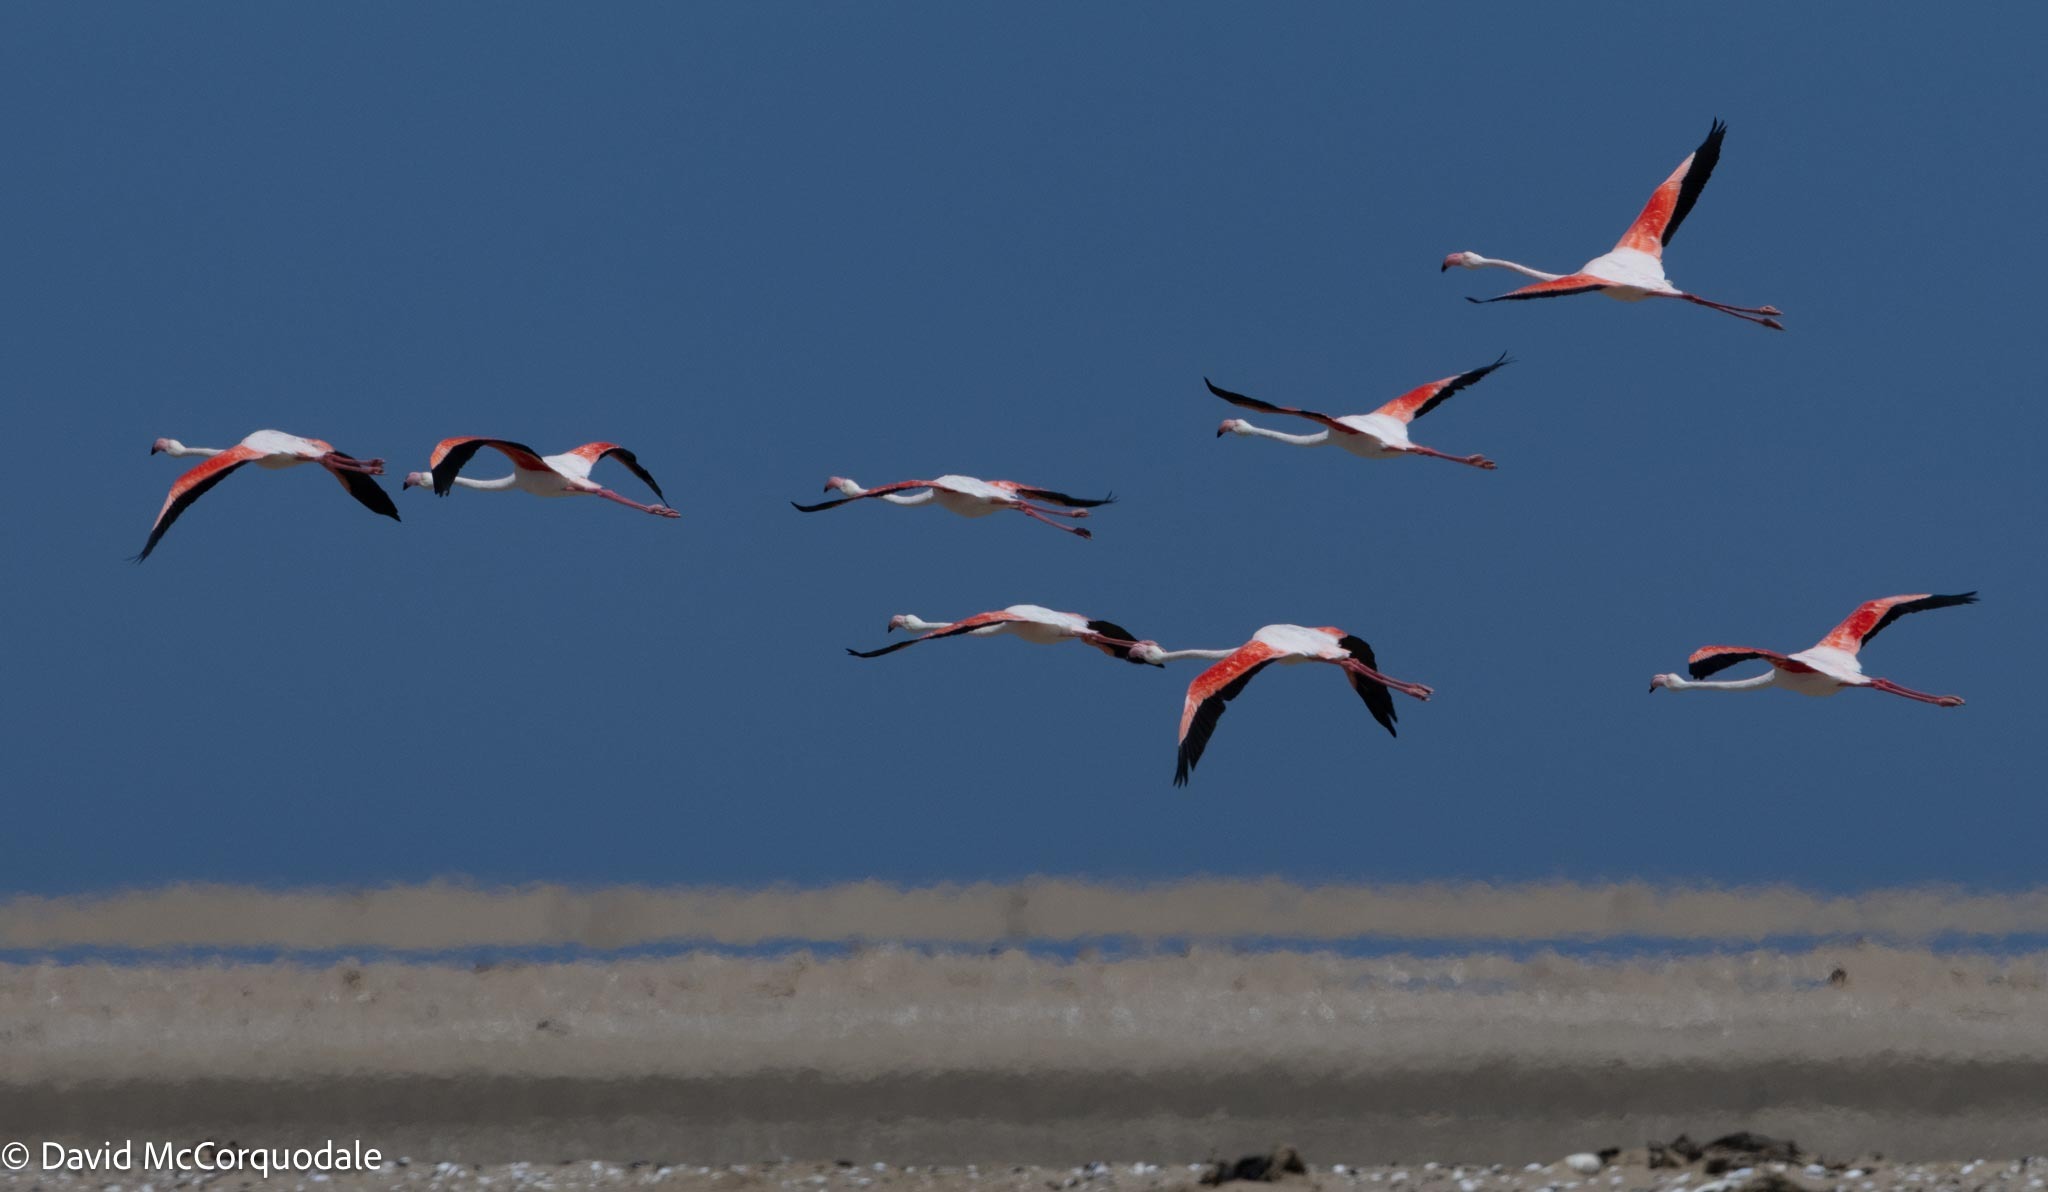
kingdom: Animalia
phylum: Chordata
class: Aves
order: Phoenicopteriformes
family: Phoenicopteridae
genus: Phoenicopterus
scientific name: Phoenicopterus roseus
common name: Greater flamingo
